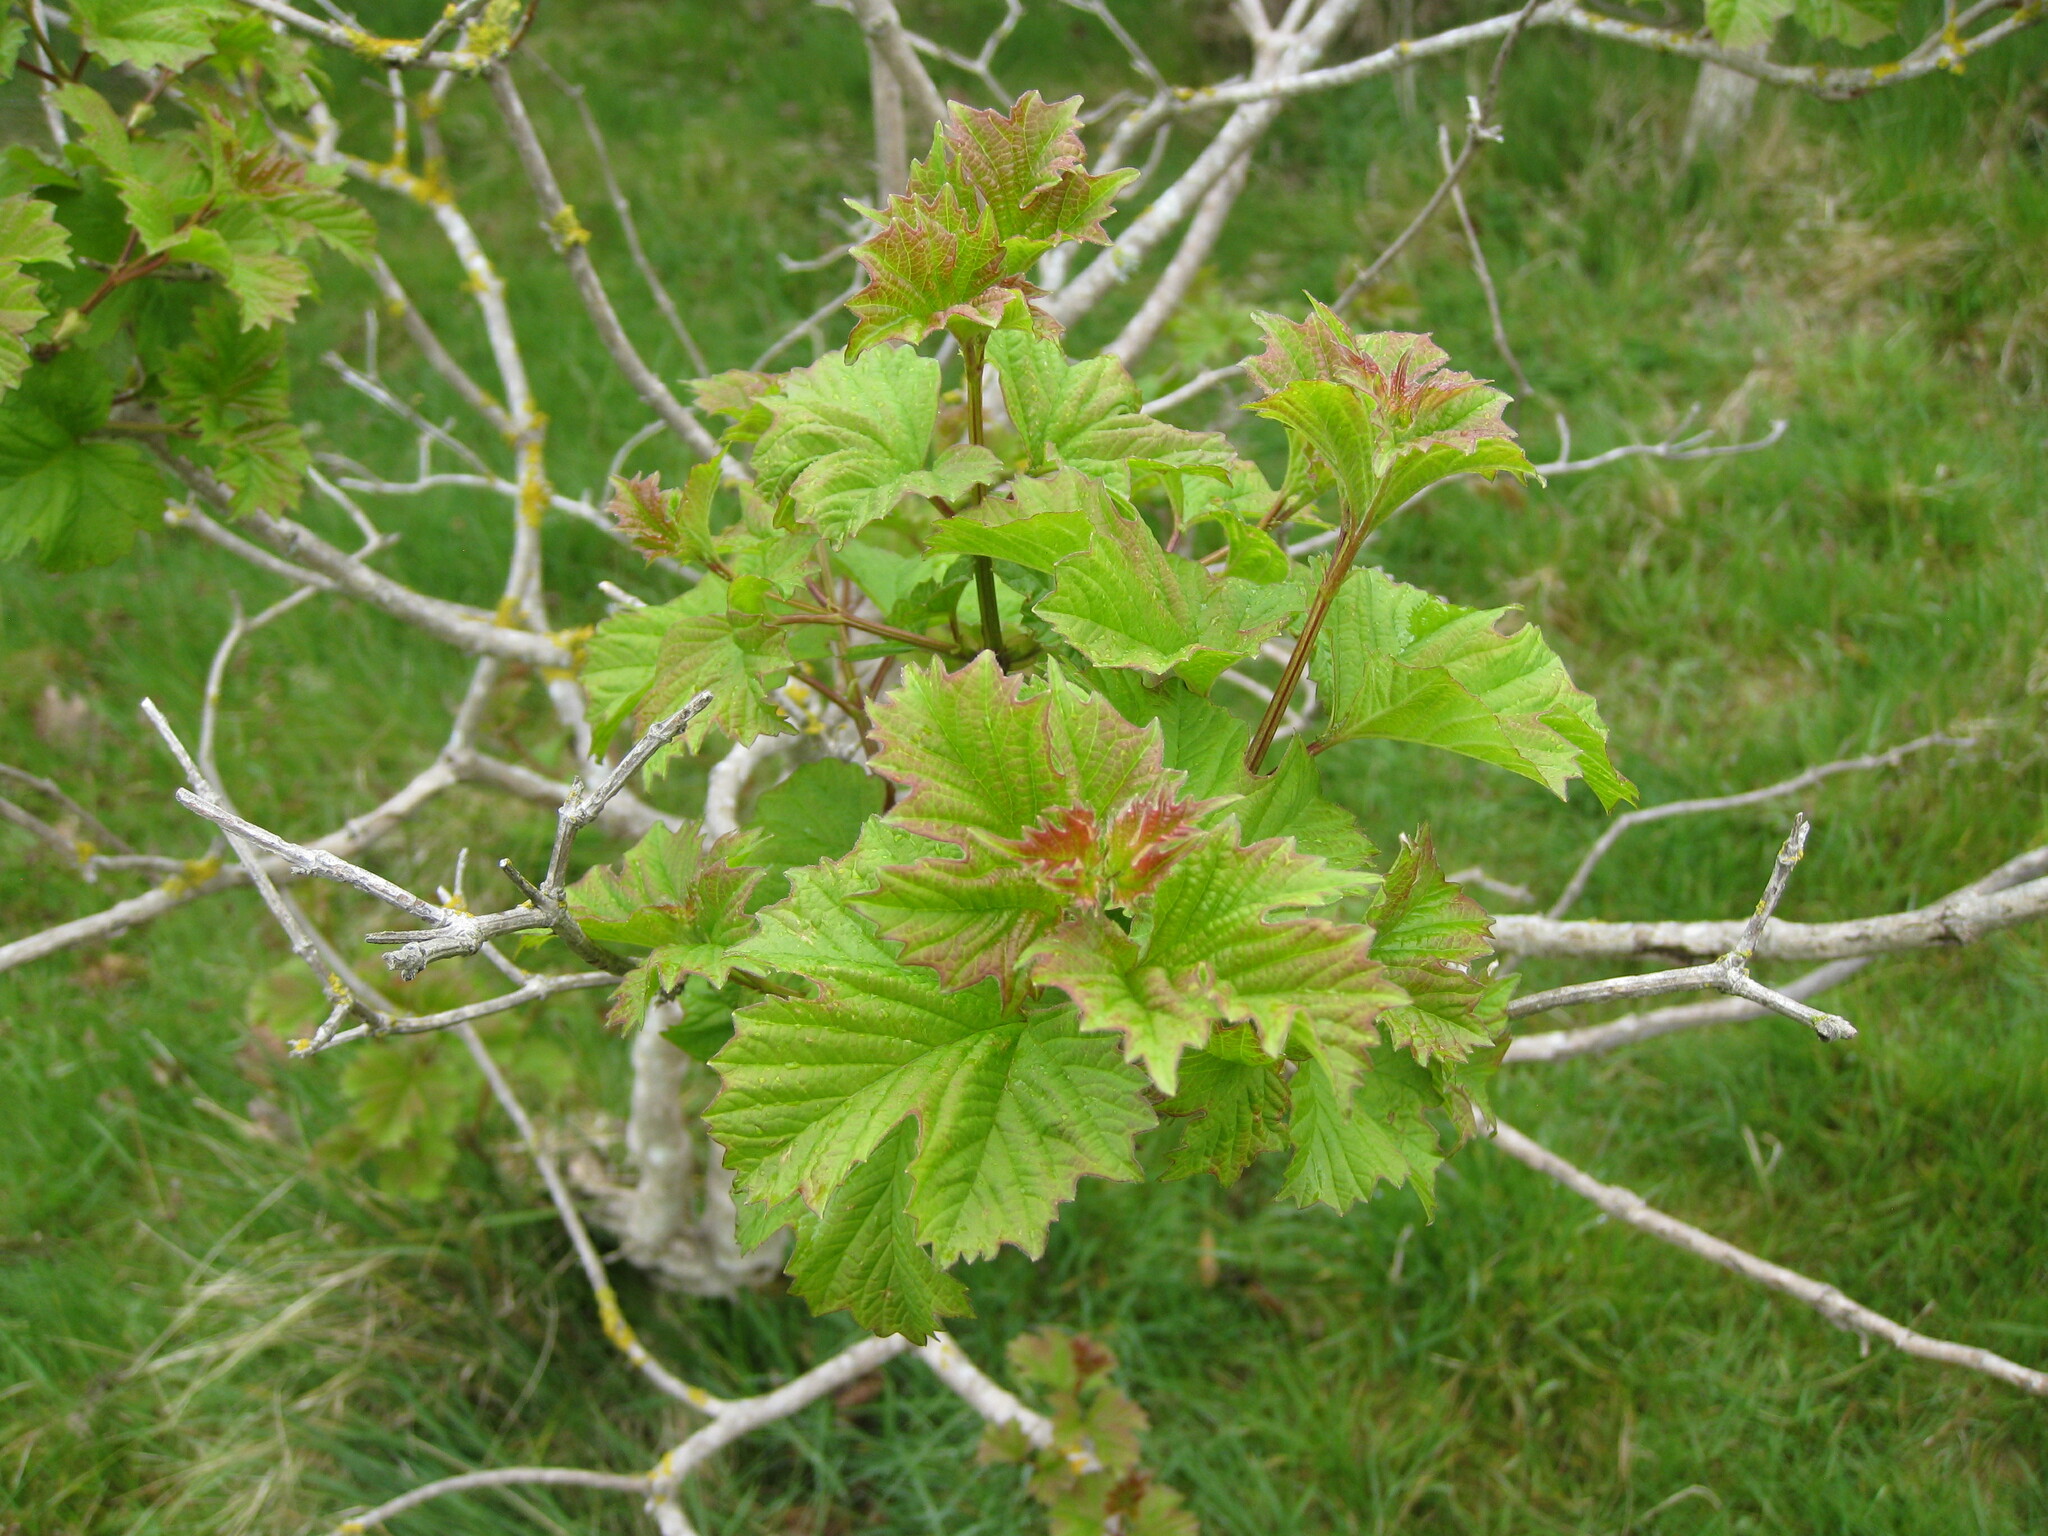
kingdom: Plantae
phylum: Tracheophyta
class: Magnoliopsida
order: Dipsacales
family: Viburnaceae
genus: Viburnum
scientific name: Viburnum opulus
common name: Guelder-rose
